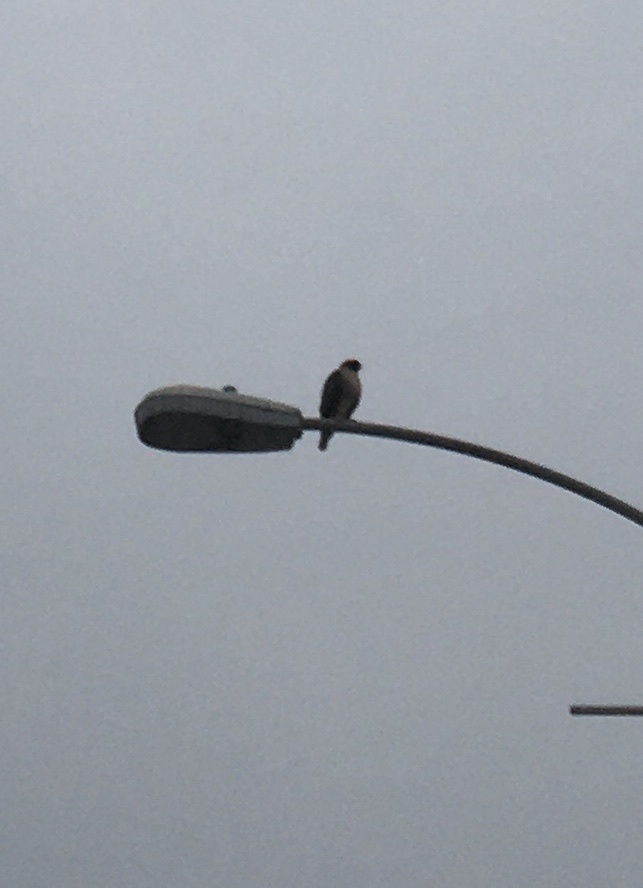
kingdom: Animalia
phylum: Chordata
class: Aves
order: Accipitriformes
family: Accipitridae
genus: Buteo
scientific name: Buteo jamaicensis
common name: Red-tailed hawk
